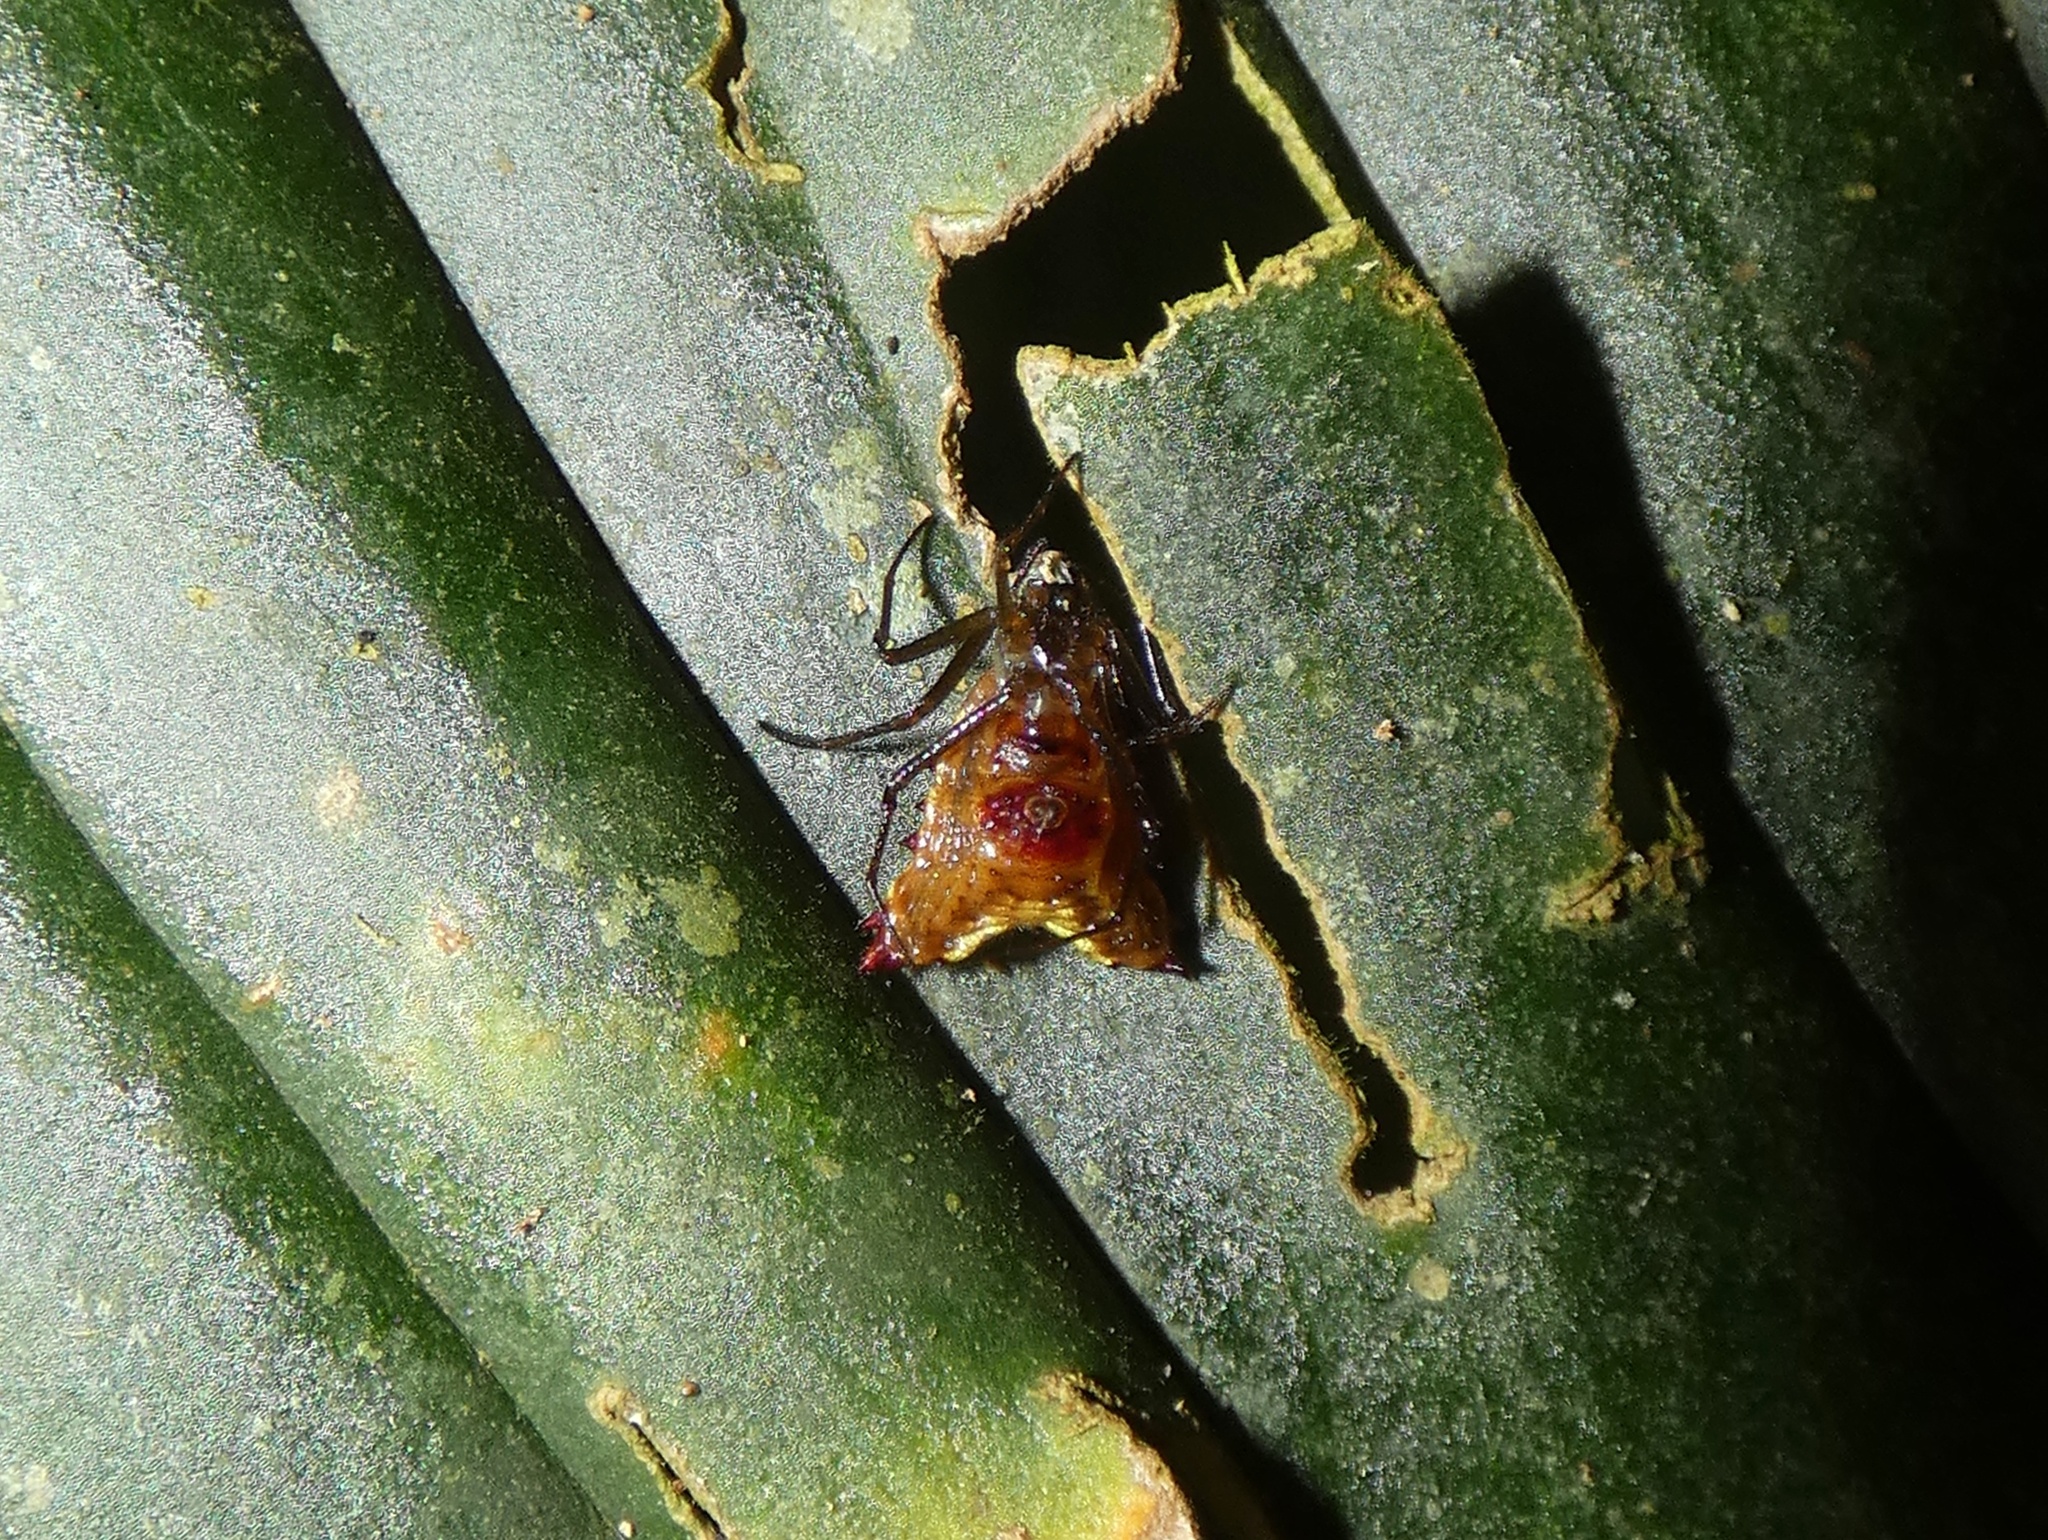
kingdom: Animalia
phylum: Arthropoda
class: Arachnida
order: Araneae
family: Araneidae
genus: Micrathena
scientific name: Micrathena triangularis
